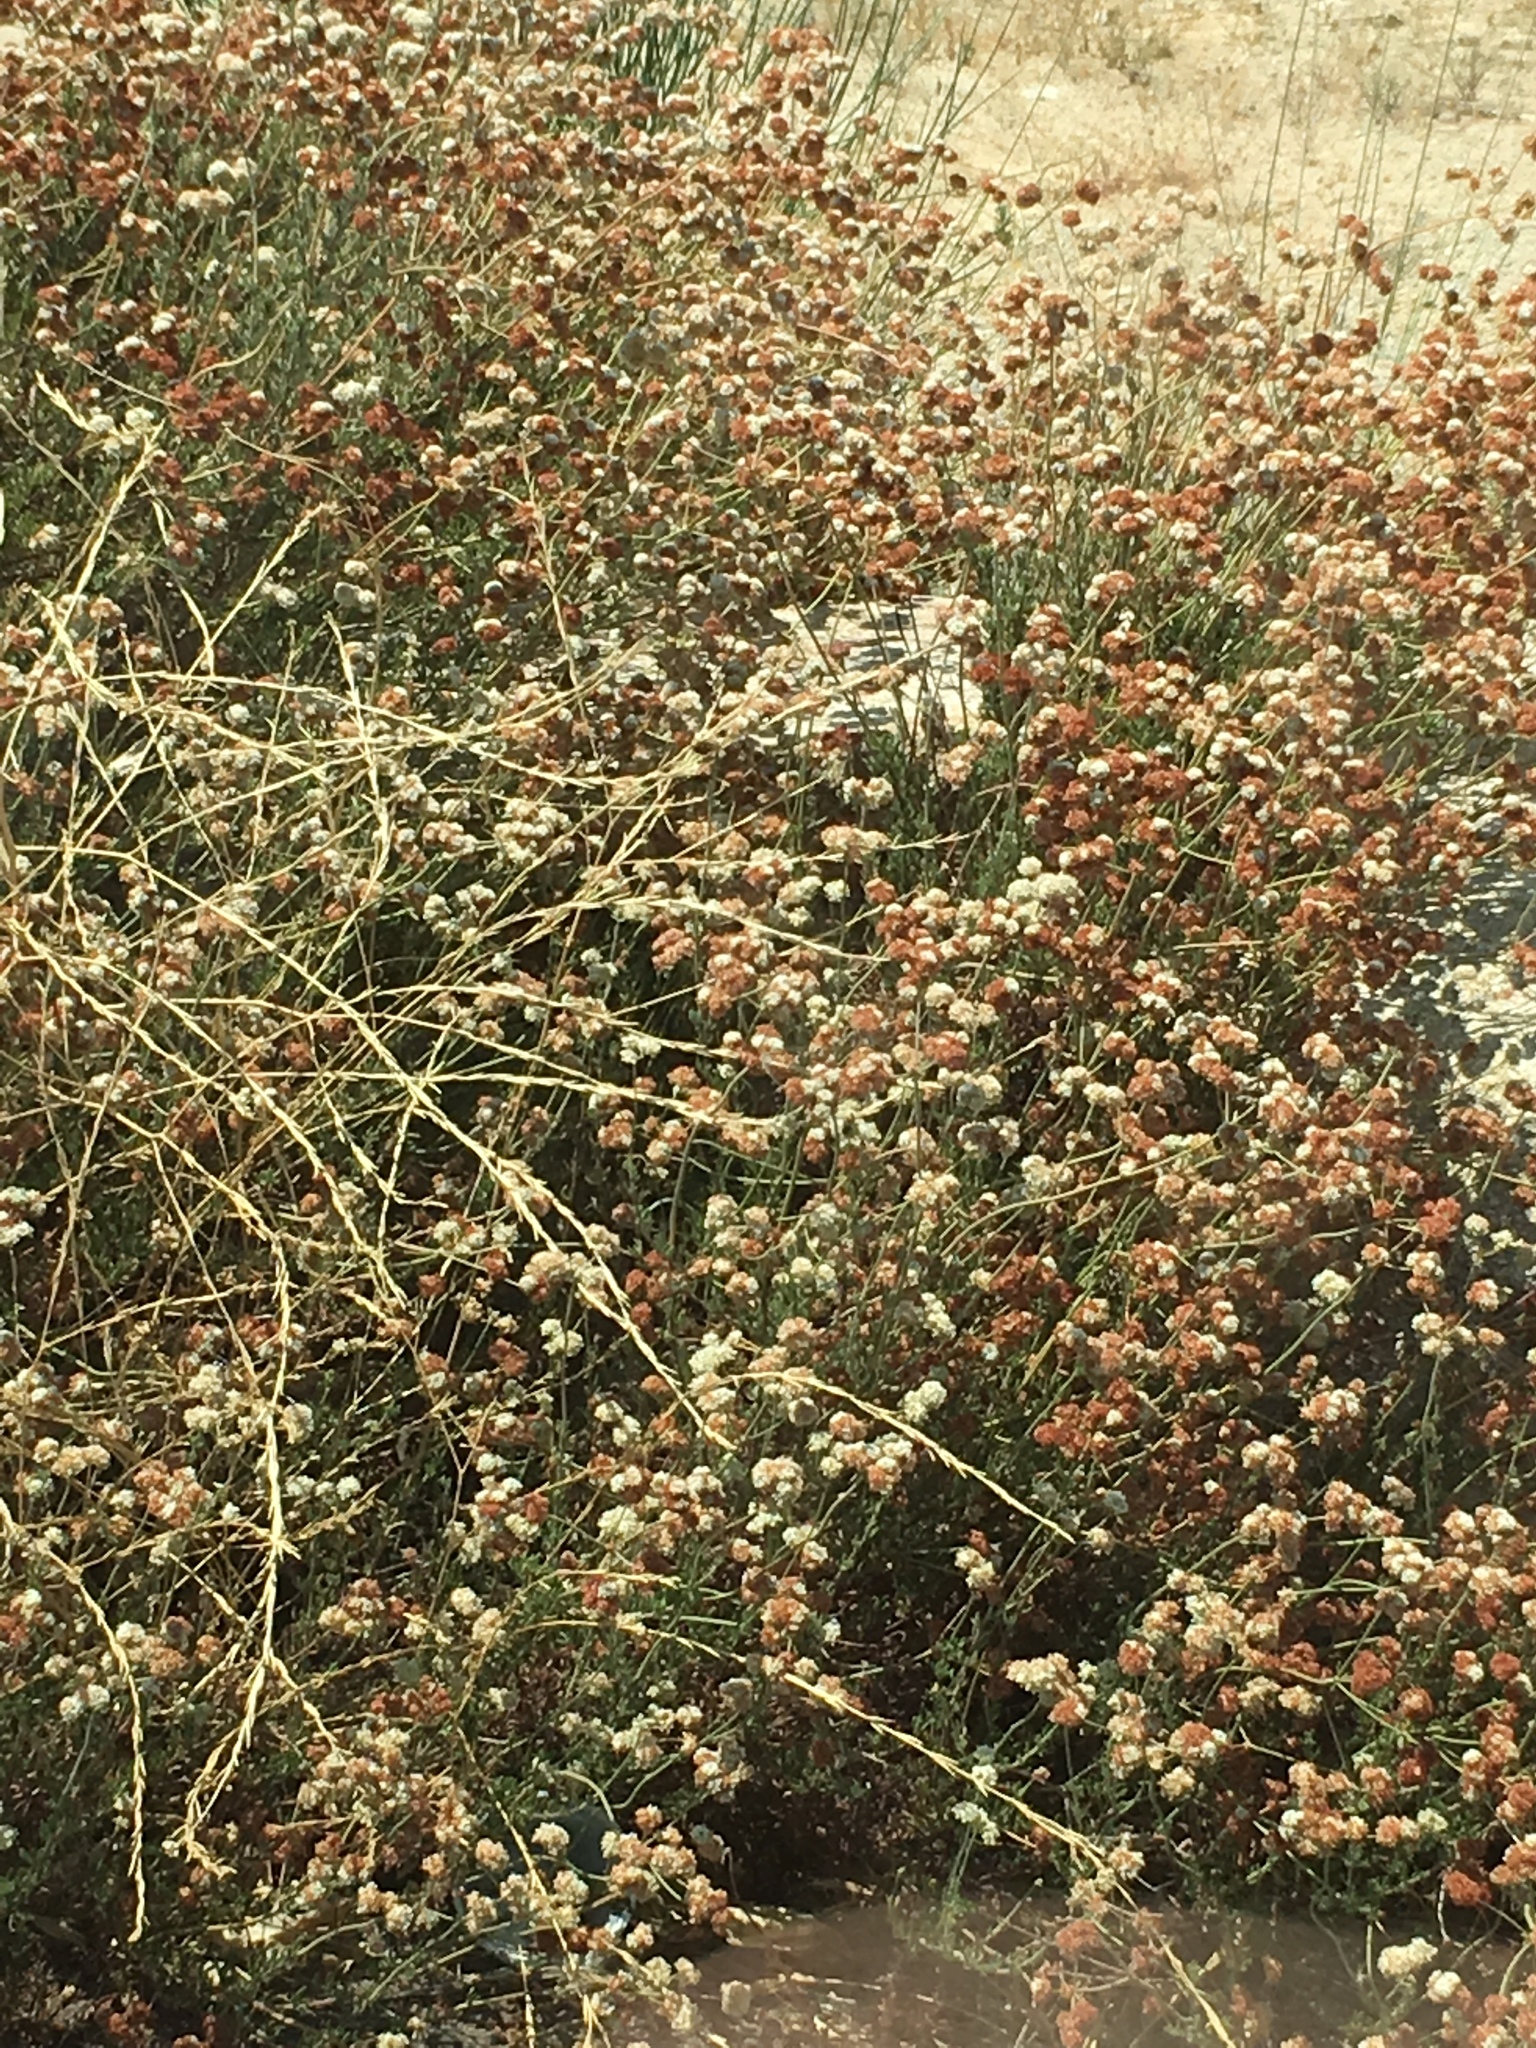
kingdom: Plantae
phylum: Tracheophyta
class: Magnoliopsida
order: Caryophyllales
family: Polygonaceae
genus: Eriogonum
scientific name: Eriogonum fasciculatum
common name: California wild buckwheat
